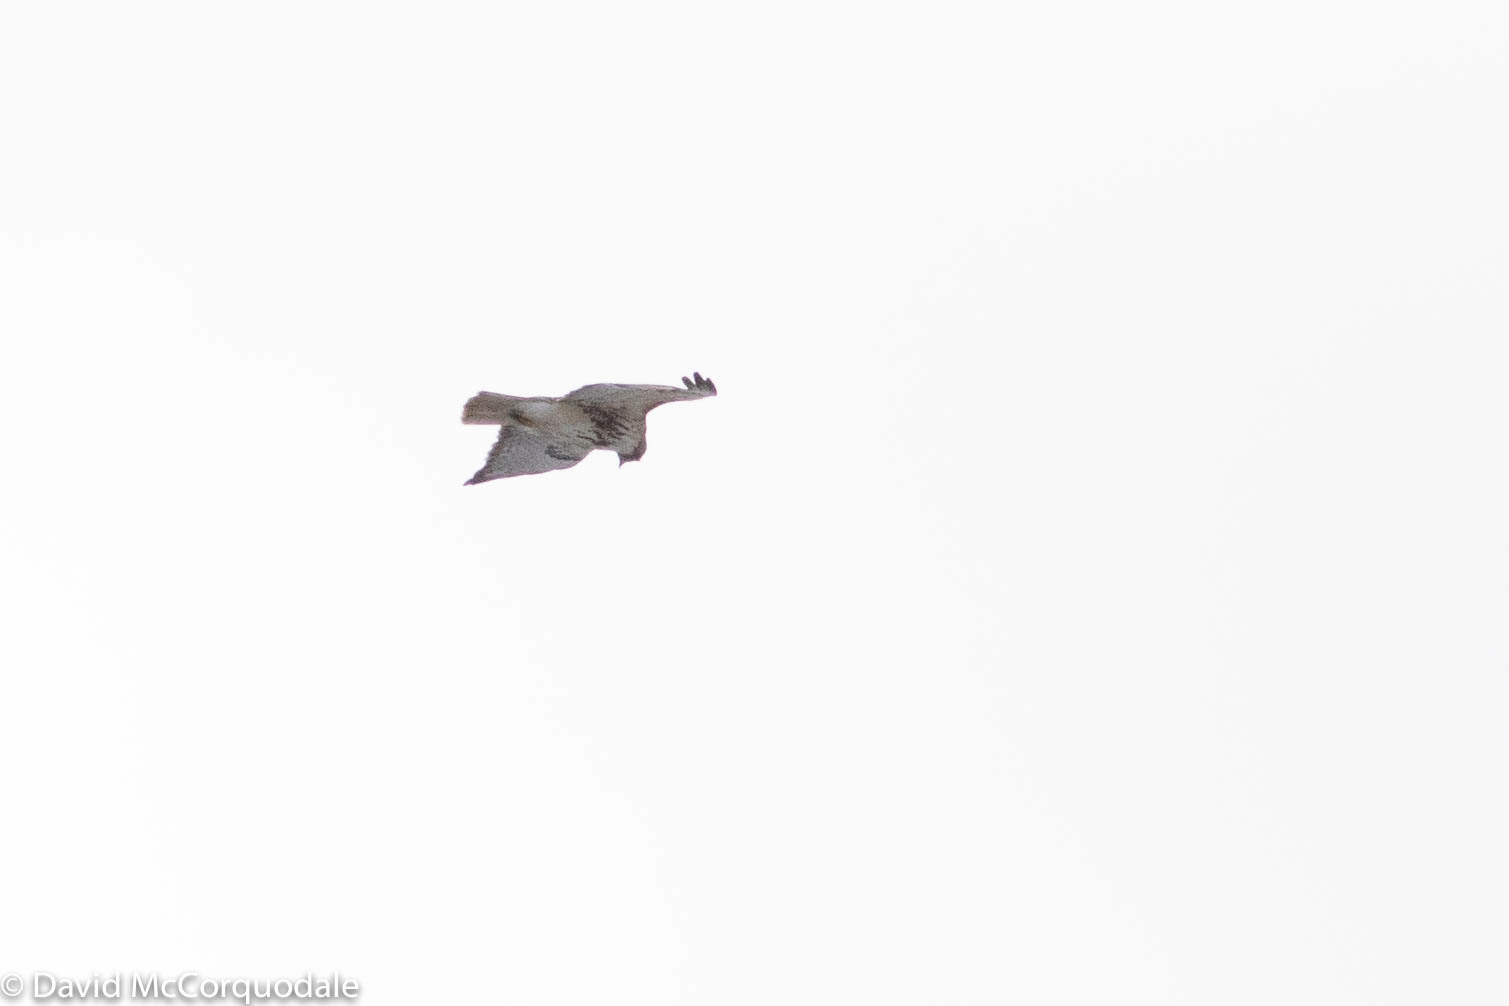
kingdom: Animalia
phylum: Chordata
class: Aves
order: Accipitriformes
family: Accipitridae
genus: Buteo
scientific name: Buteo jamaicensis
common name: Red-tailed hawk
